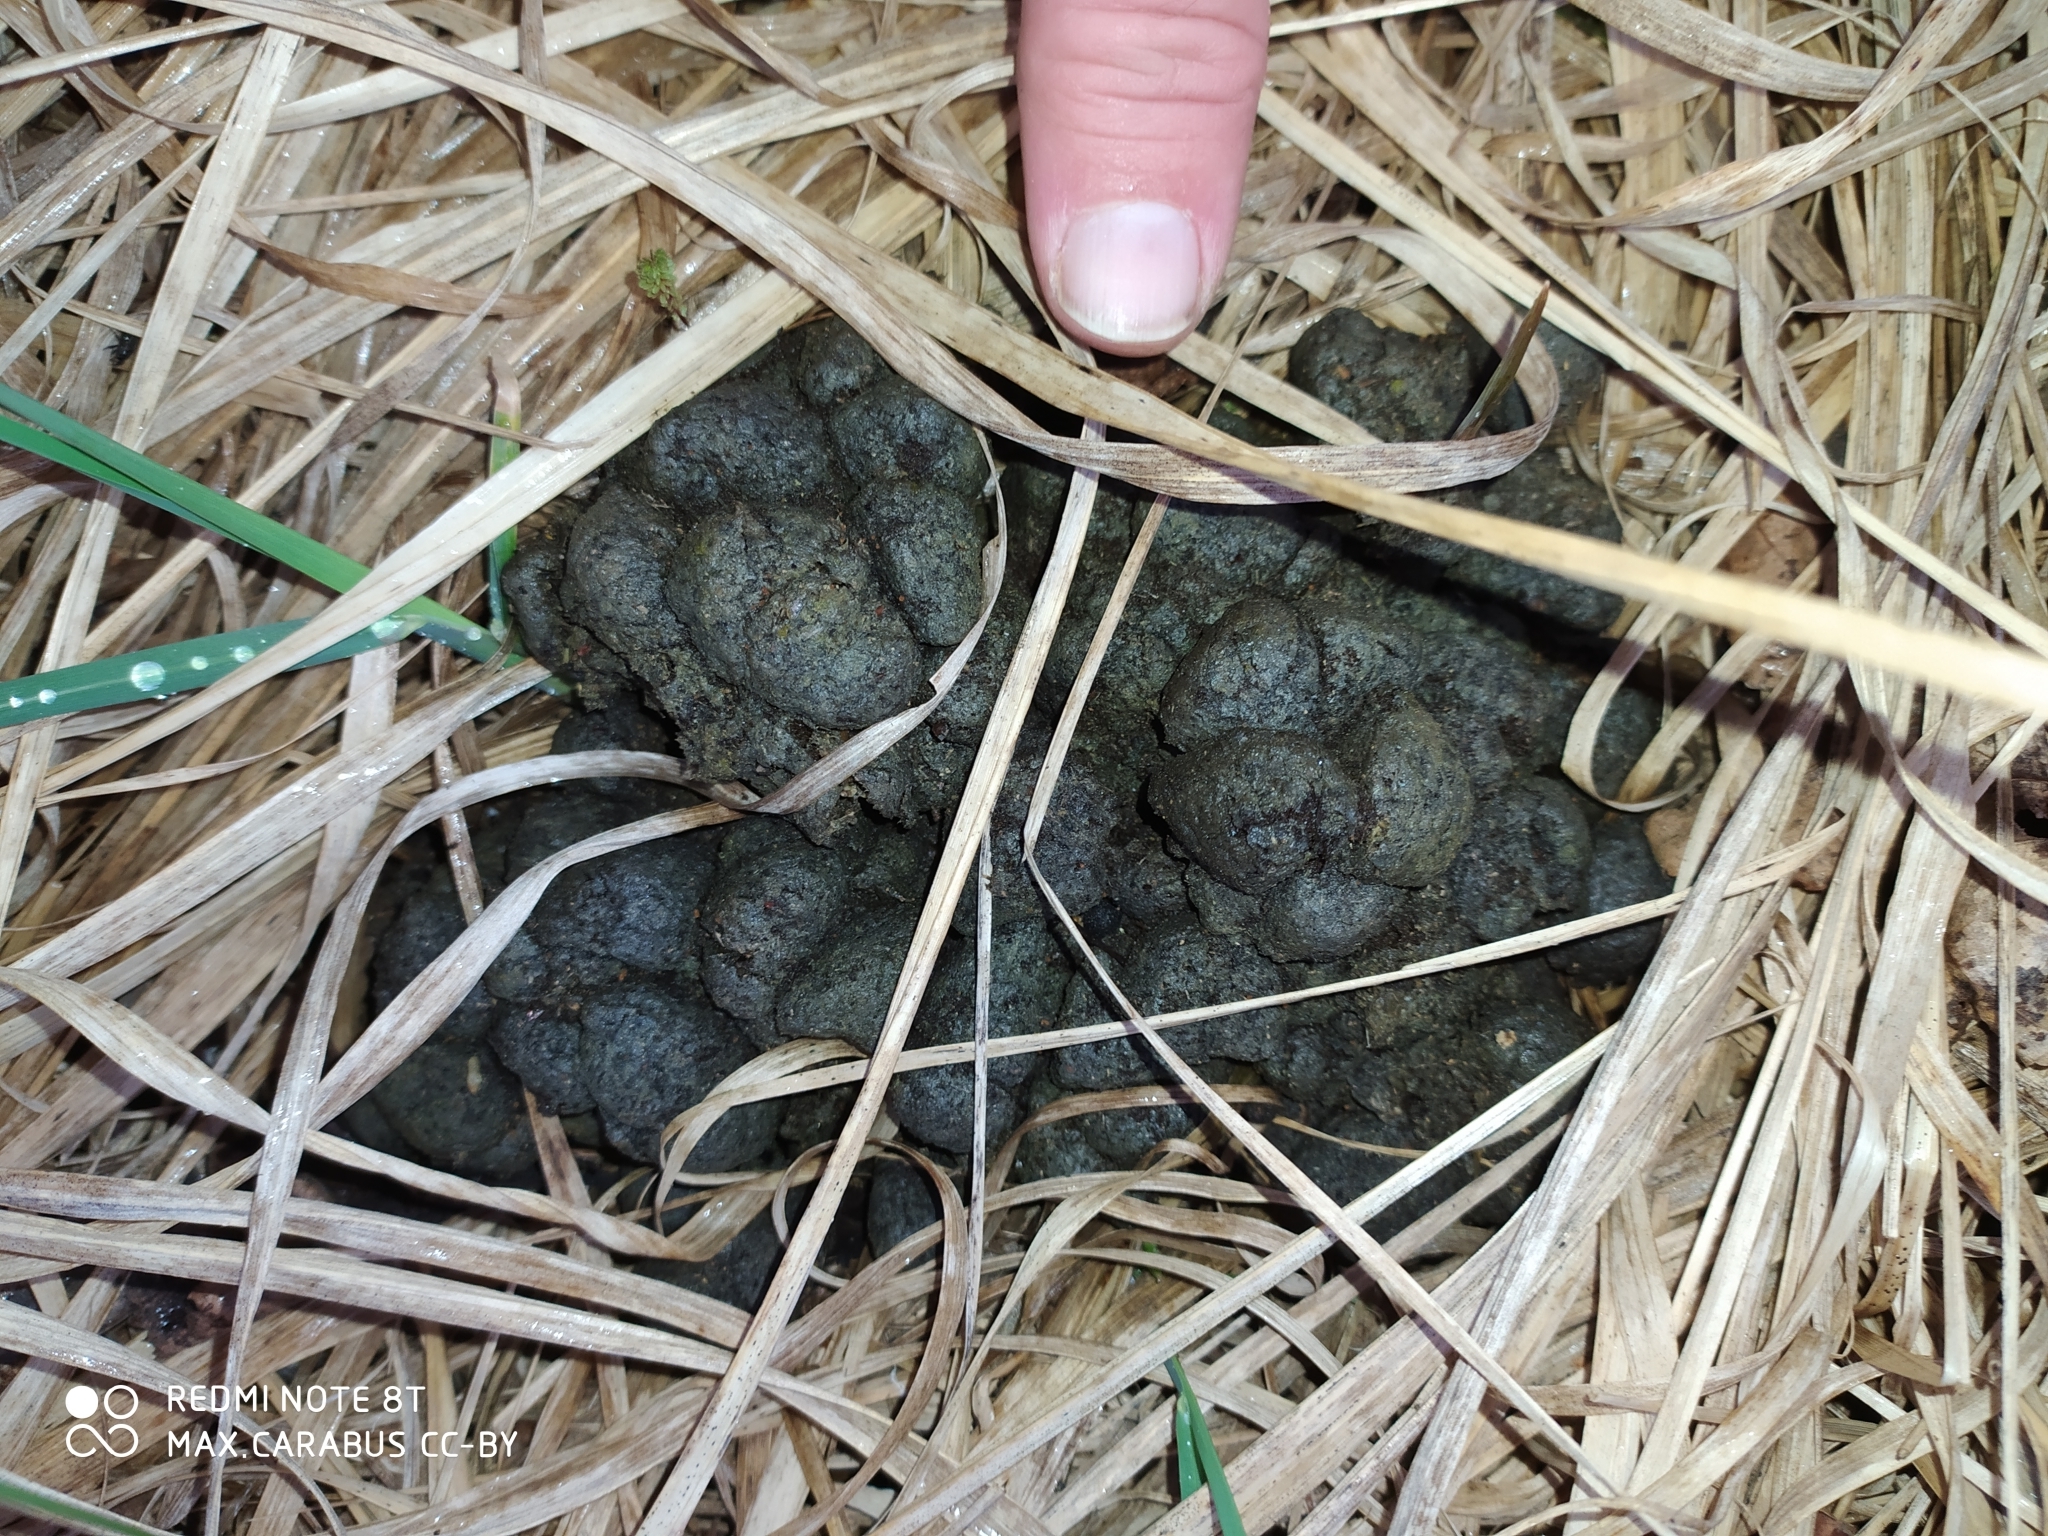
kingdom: Animalia
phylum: Chordata
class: Mammalia
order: Artiodactyla
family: Suidae
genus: Sus
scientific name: Sus scrofa
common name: Wild boar
